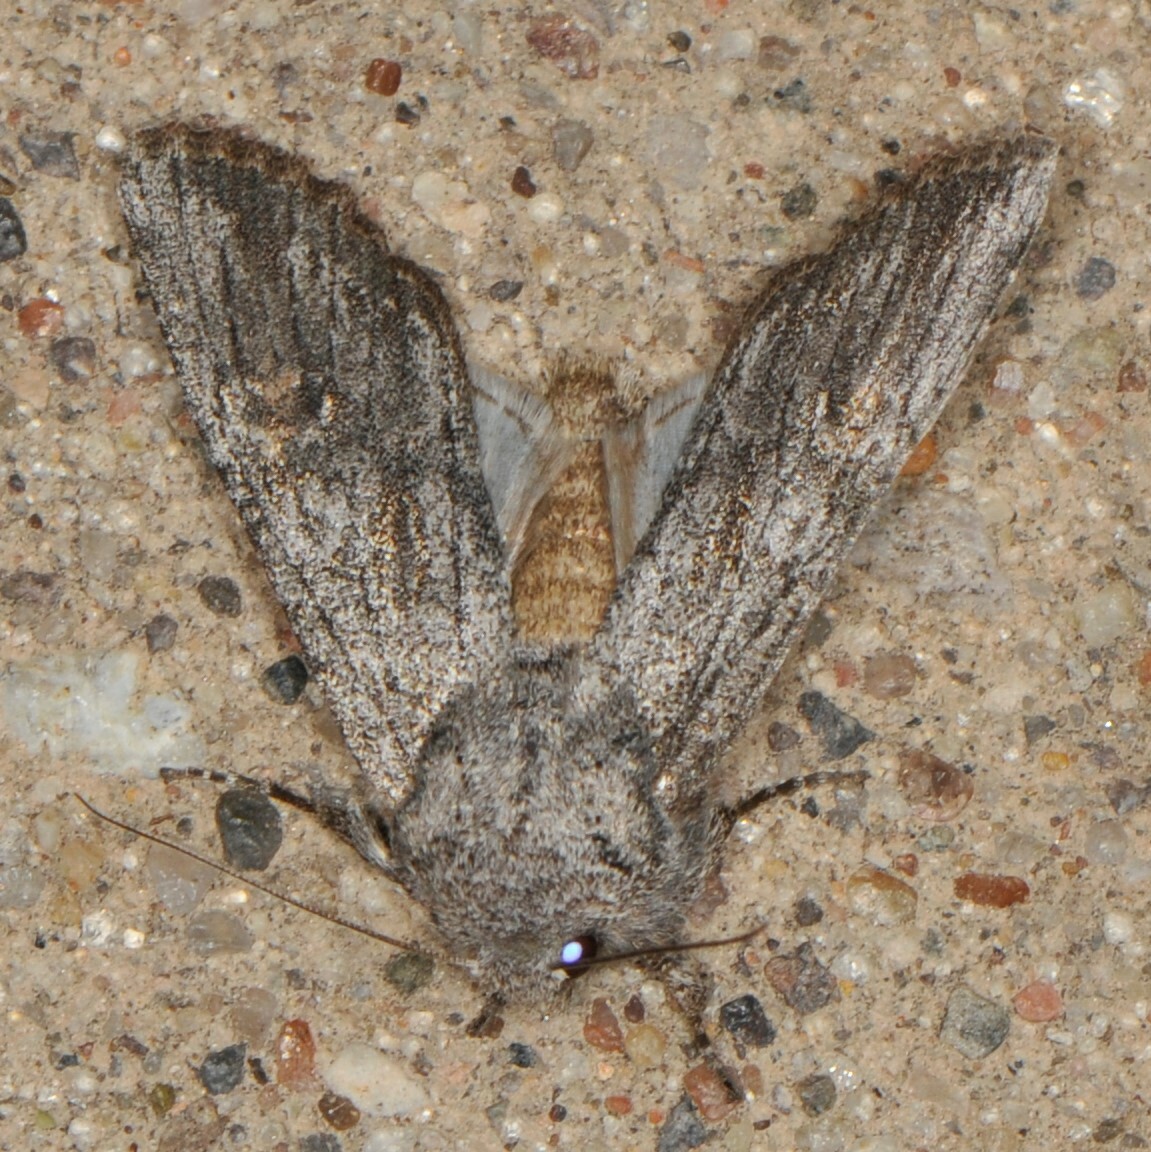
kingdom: Animalia
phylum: Arthropoda
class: Insecta
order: Lepidoptera
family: Noctuidae
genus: Egira
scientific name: Egira curialis
